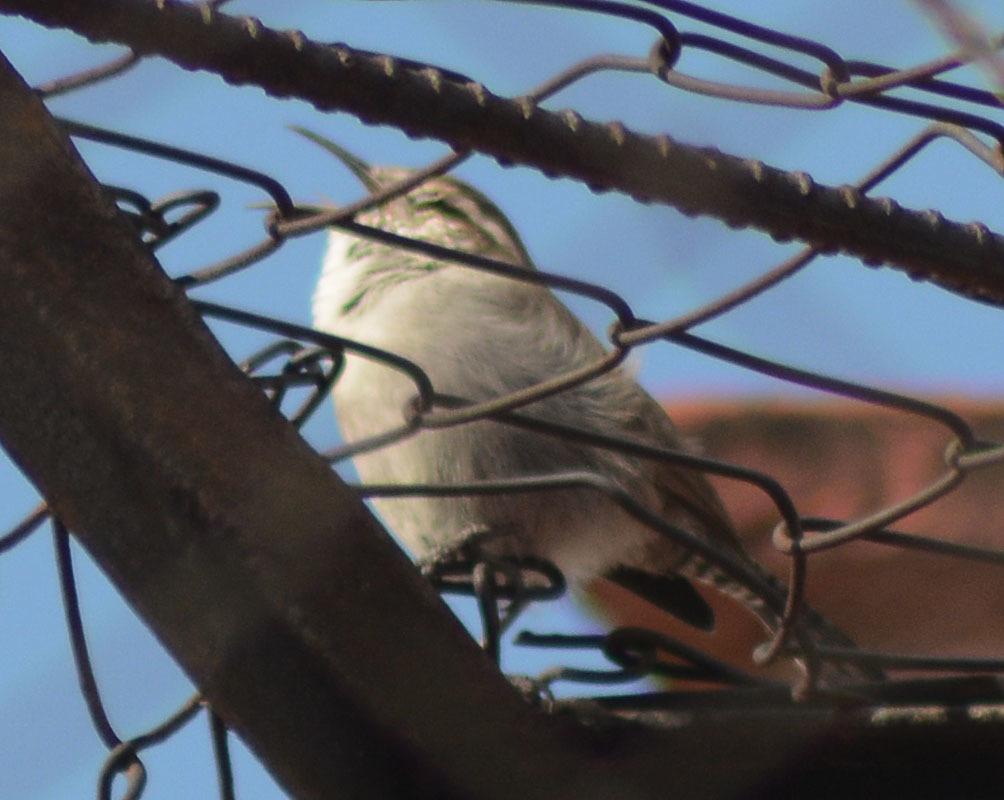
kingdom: Animalia
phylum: Chordata
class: Aves
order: Passeriformes
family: Troglodytidae
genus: Thryomanes
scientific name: Thryomanes bewickii
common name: Bewick's wren
